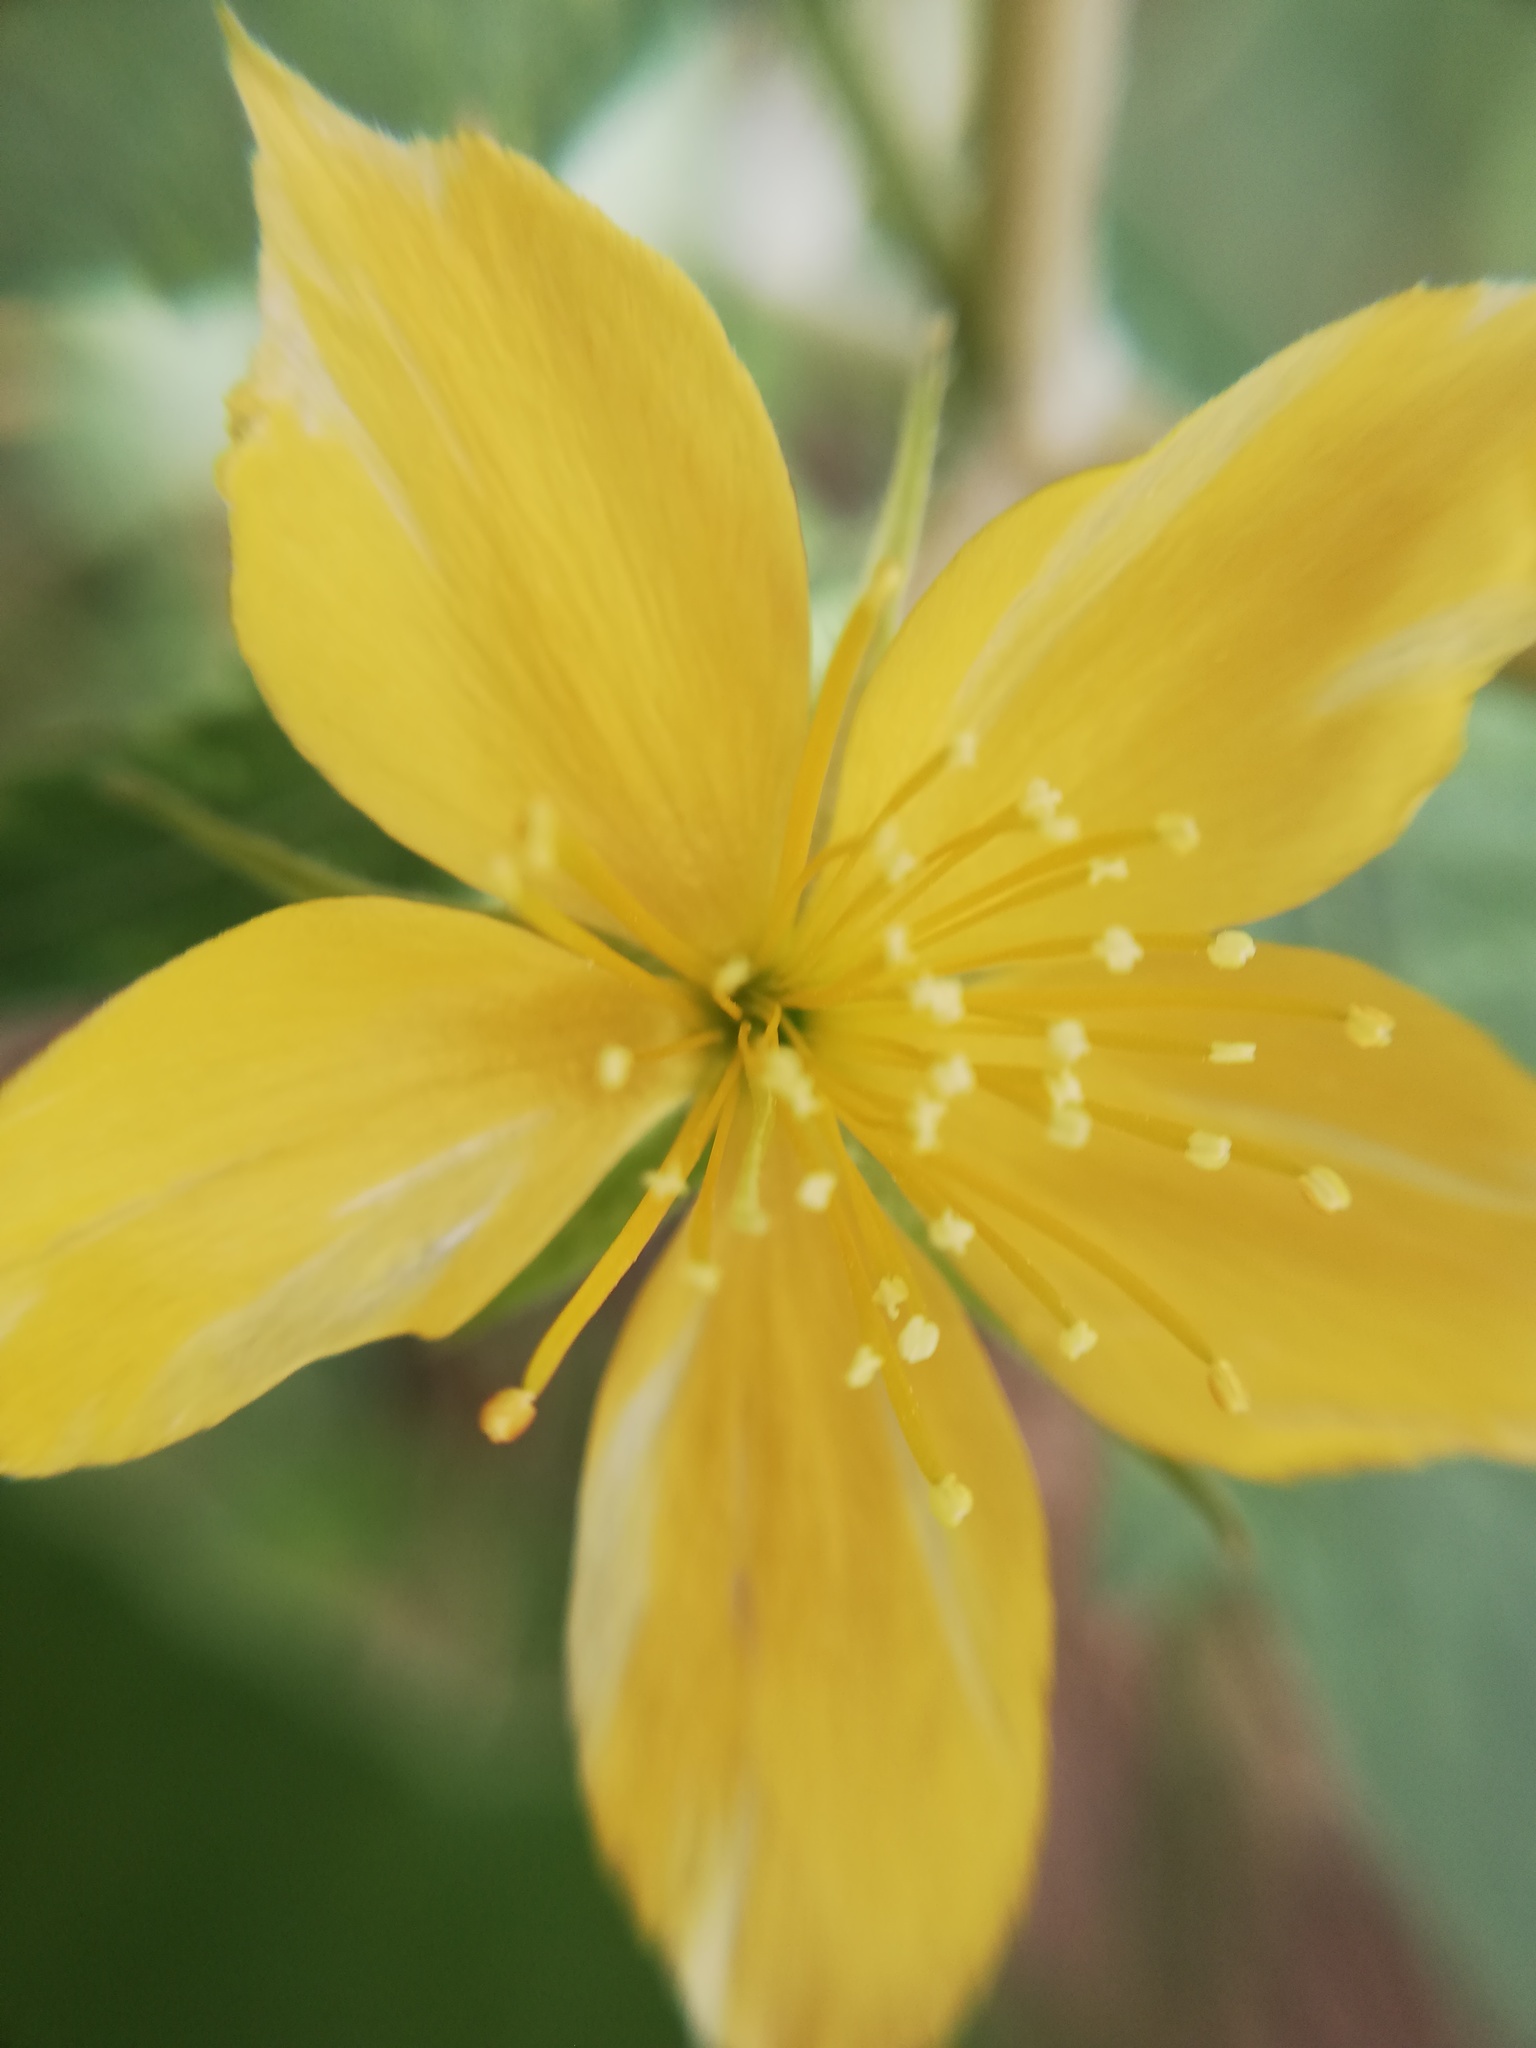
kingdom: Plantae
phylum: Tracheophyta
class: Magnoliopsida
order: Cornales
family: Loasaceae
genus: Mentzelia
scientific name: Mentzelia hispida
